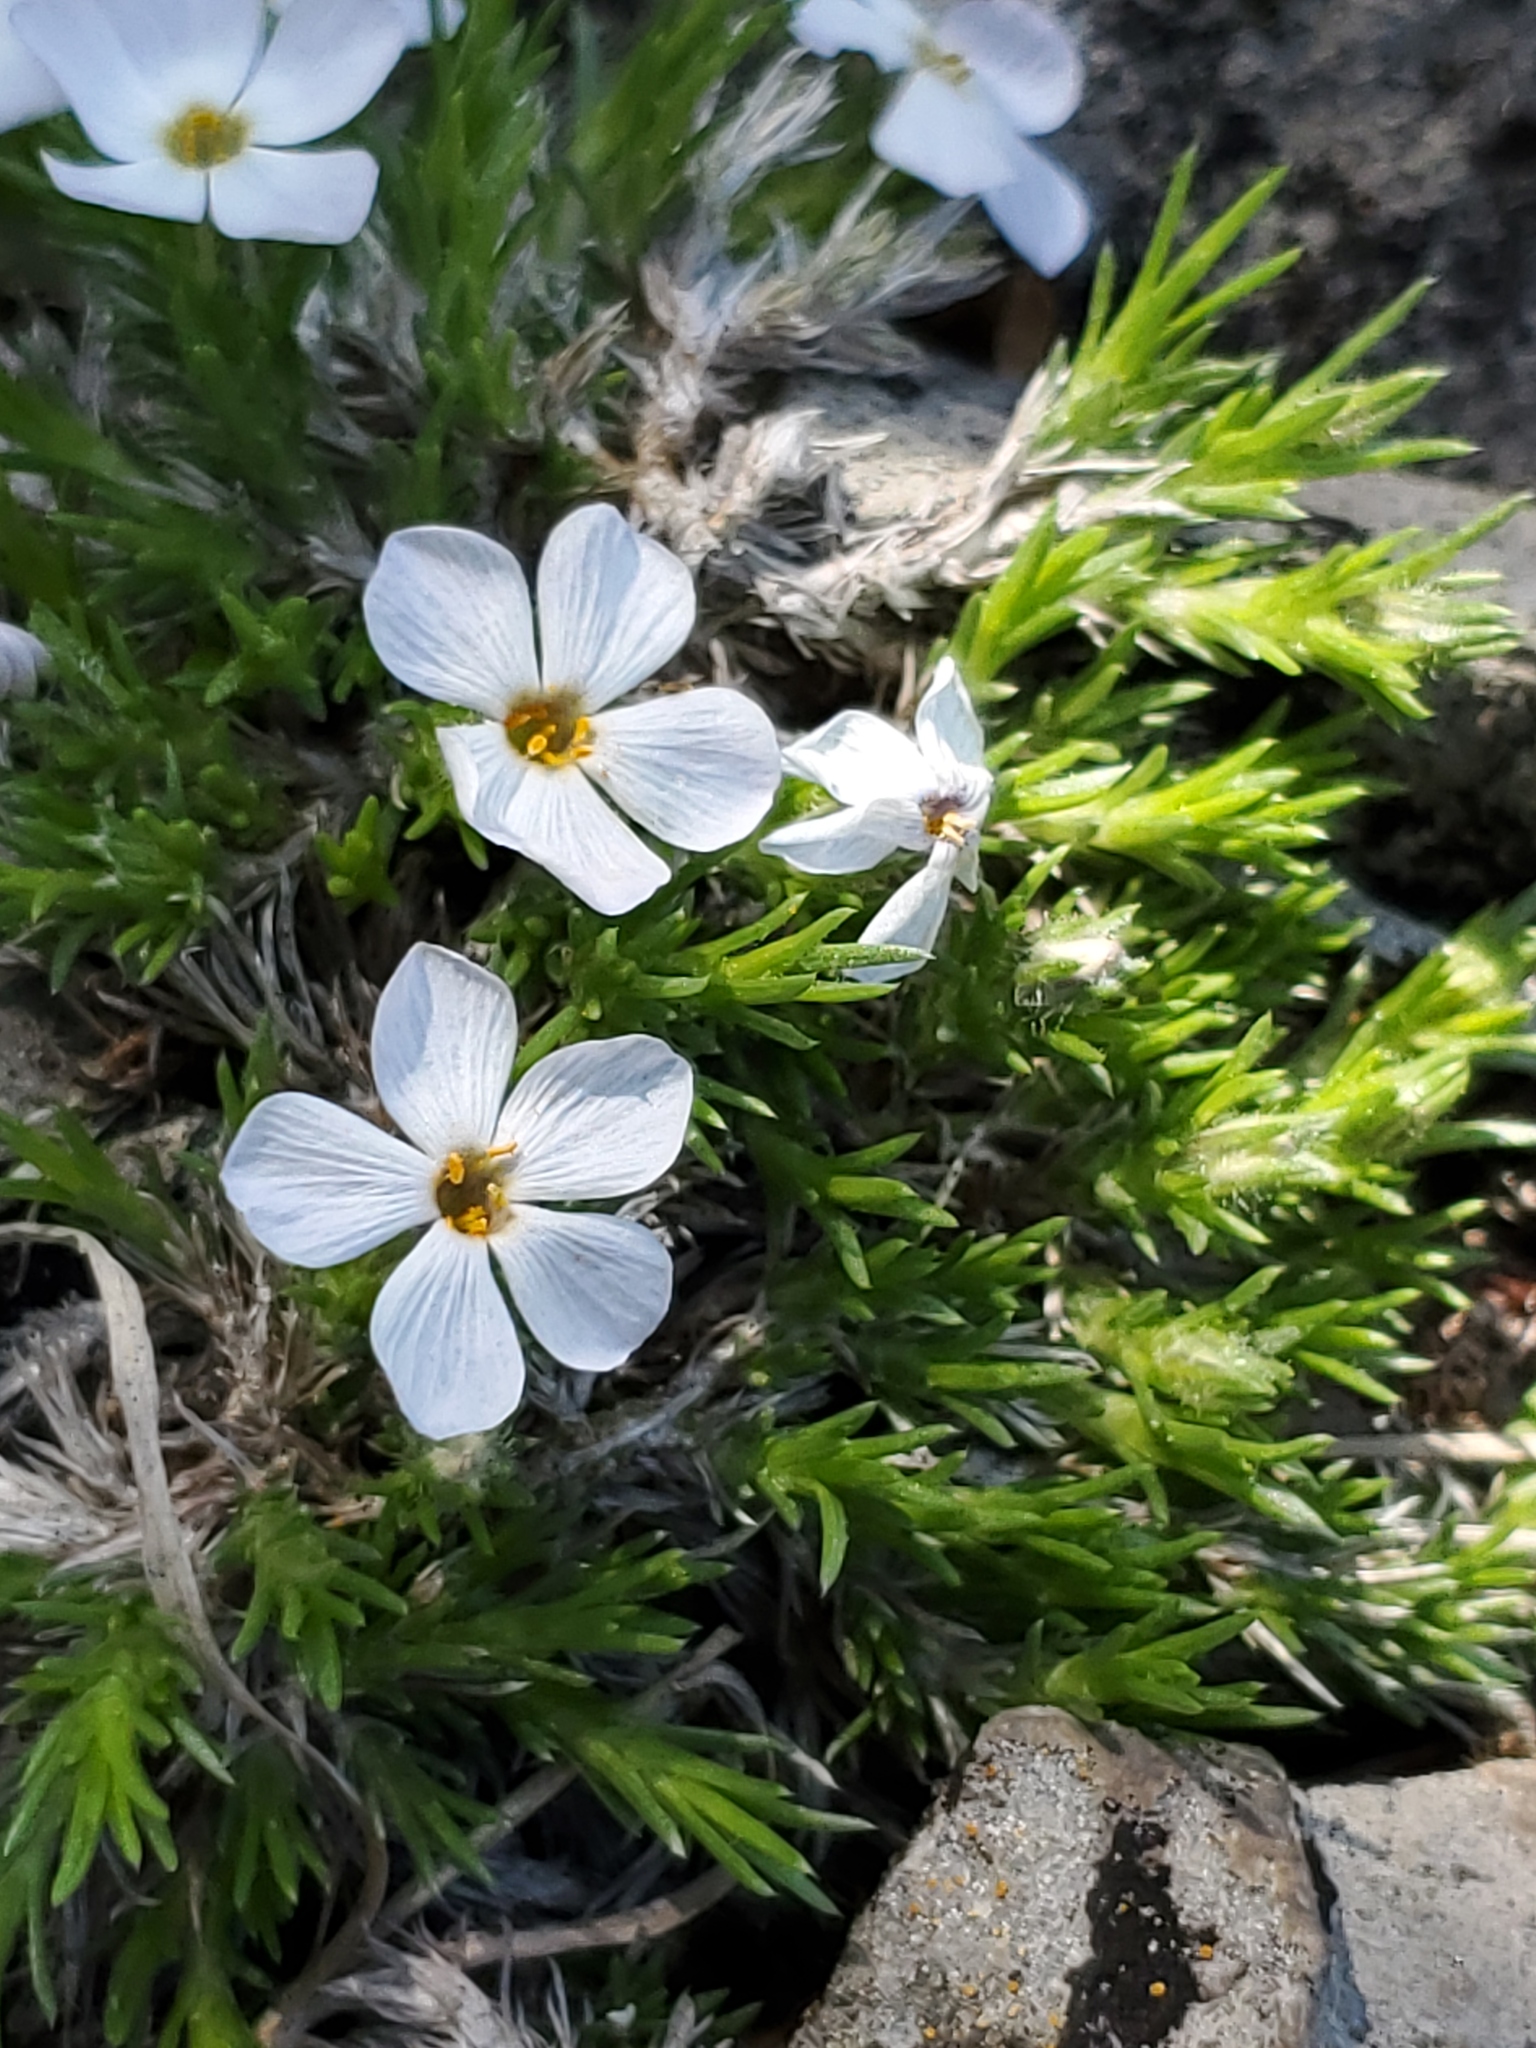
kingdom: Plantae
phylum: Tracheophyta
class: Magnoliopsida
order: Ericales
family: Polemoniaceae
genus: Phlox
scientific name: Phlox hoodii
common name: Moss phlox
